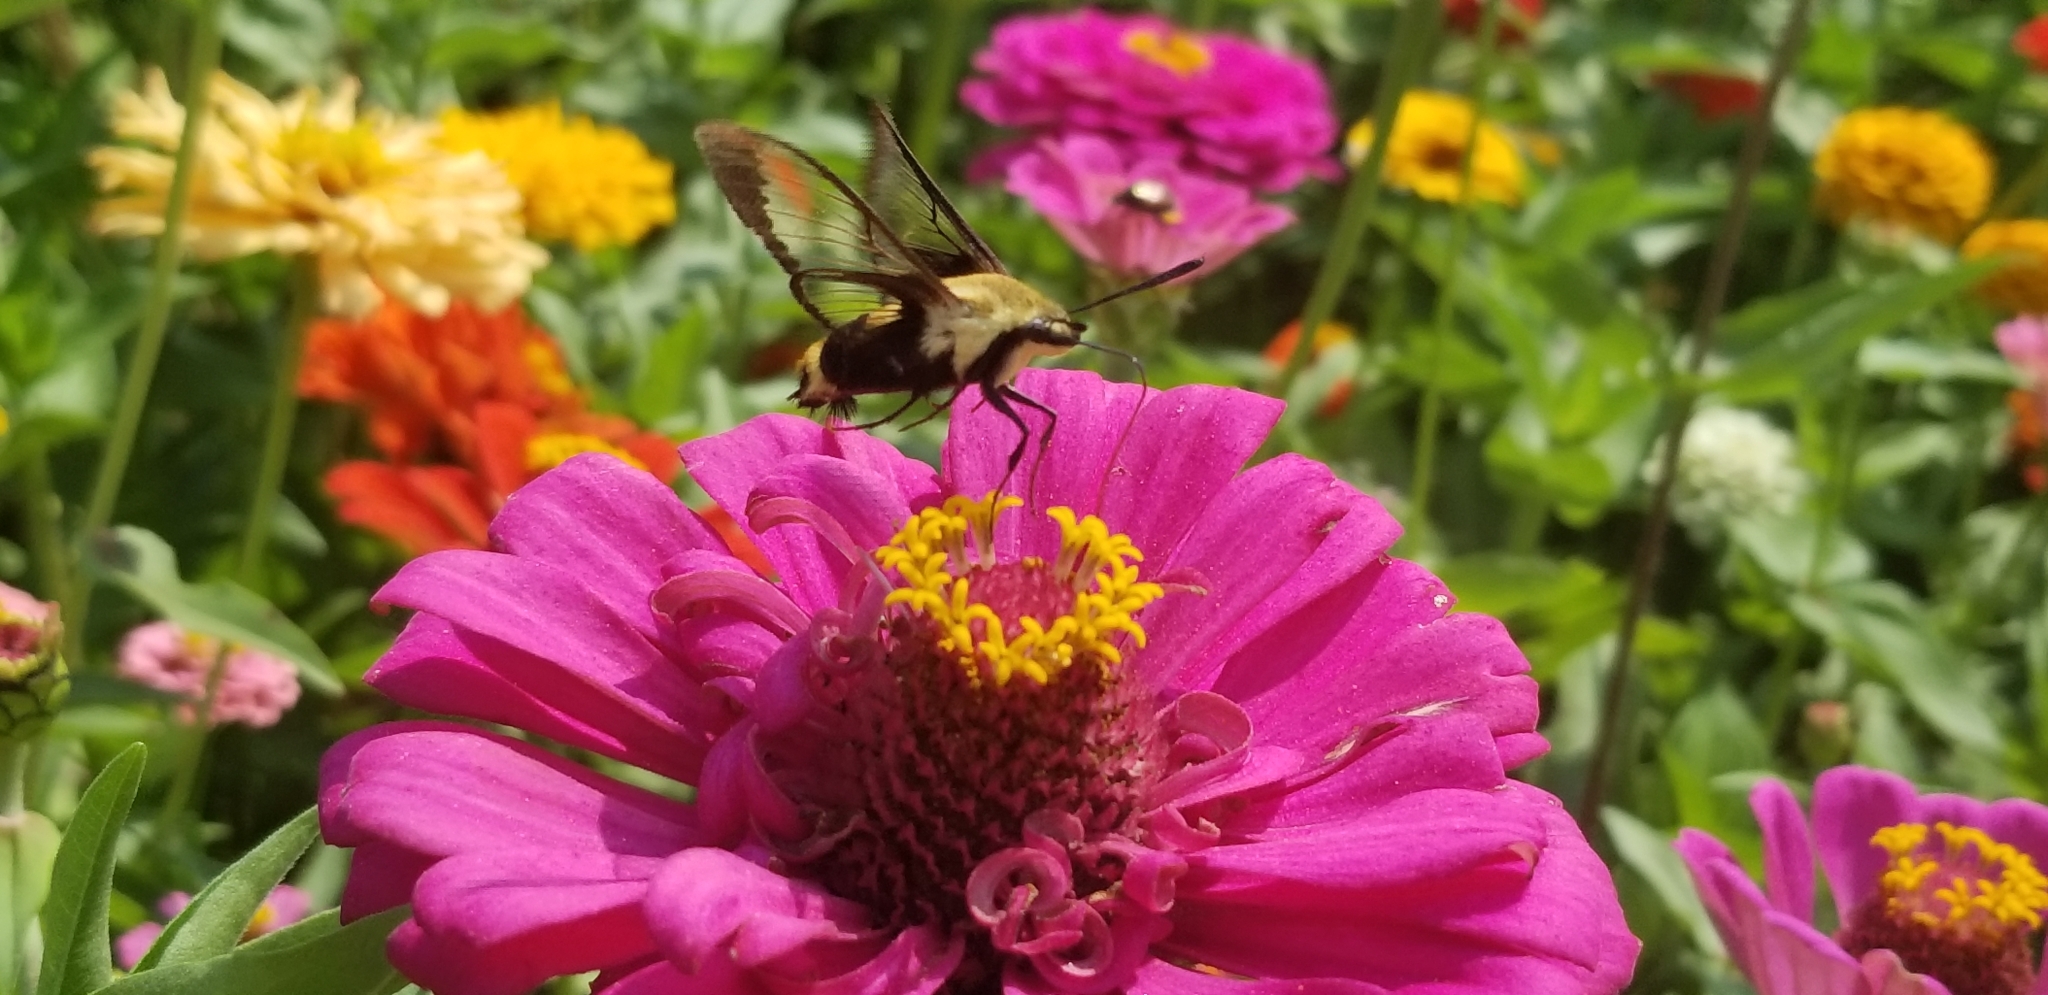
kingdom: Animalia
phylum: Arthropoda
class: Insecta
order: Lepidoptera
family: Sphingidae
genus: Hemaris
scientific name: Hemaris diffinis
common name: Bumblebee moth
